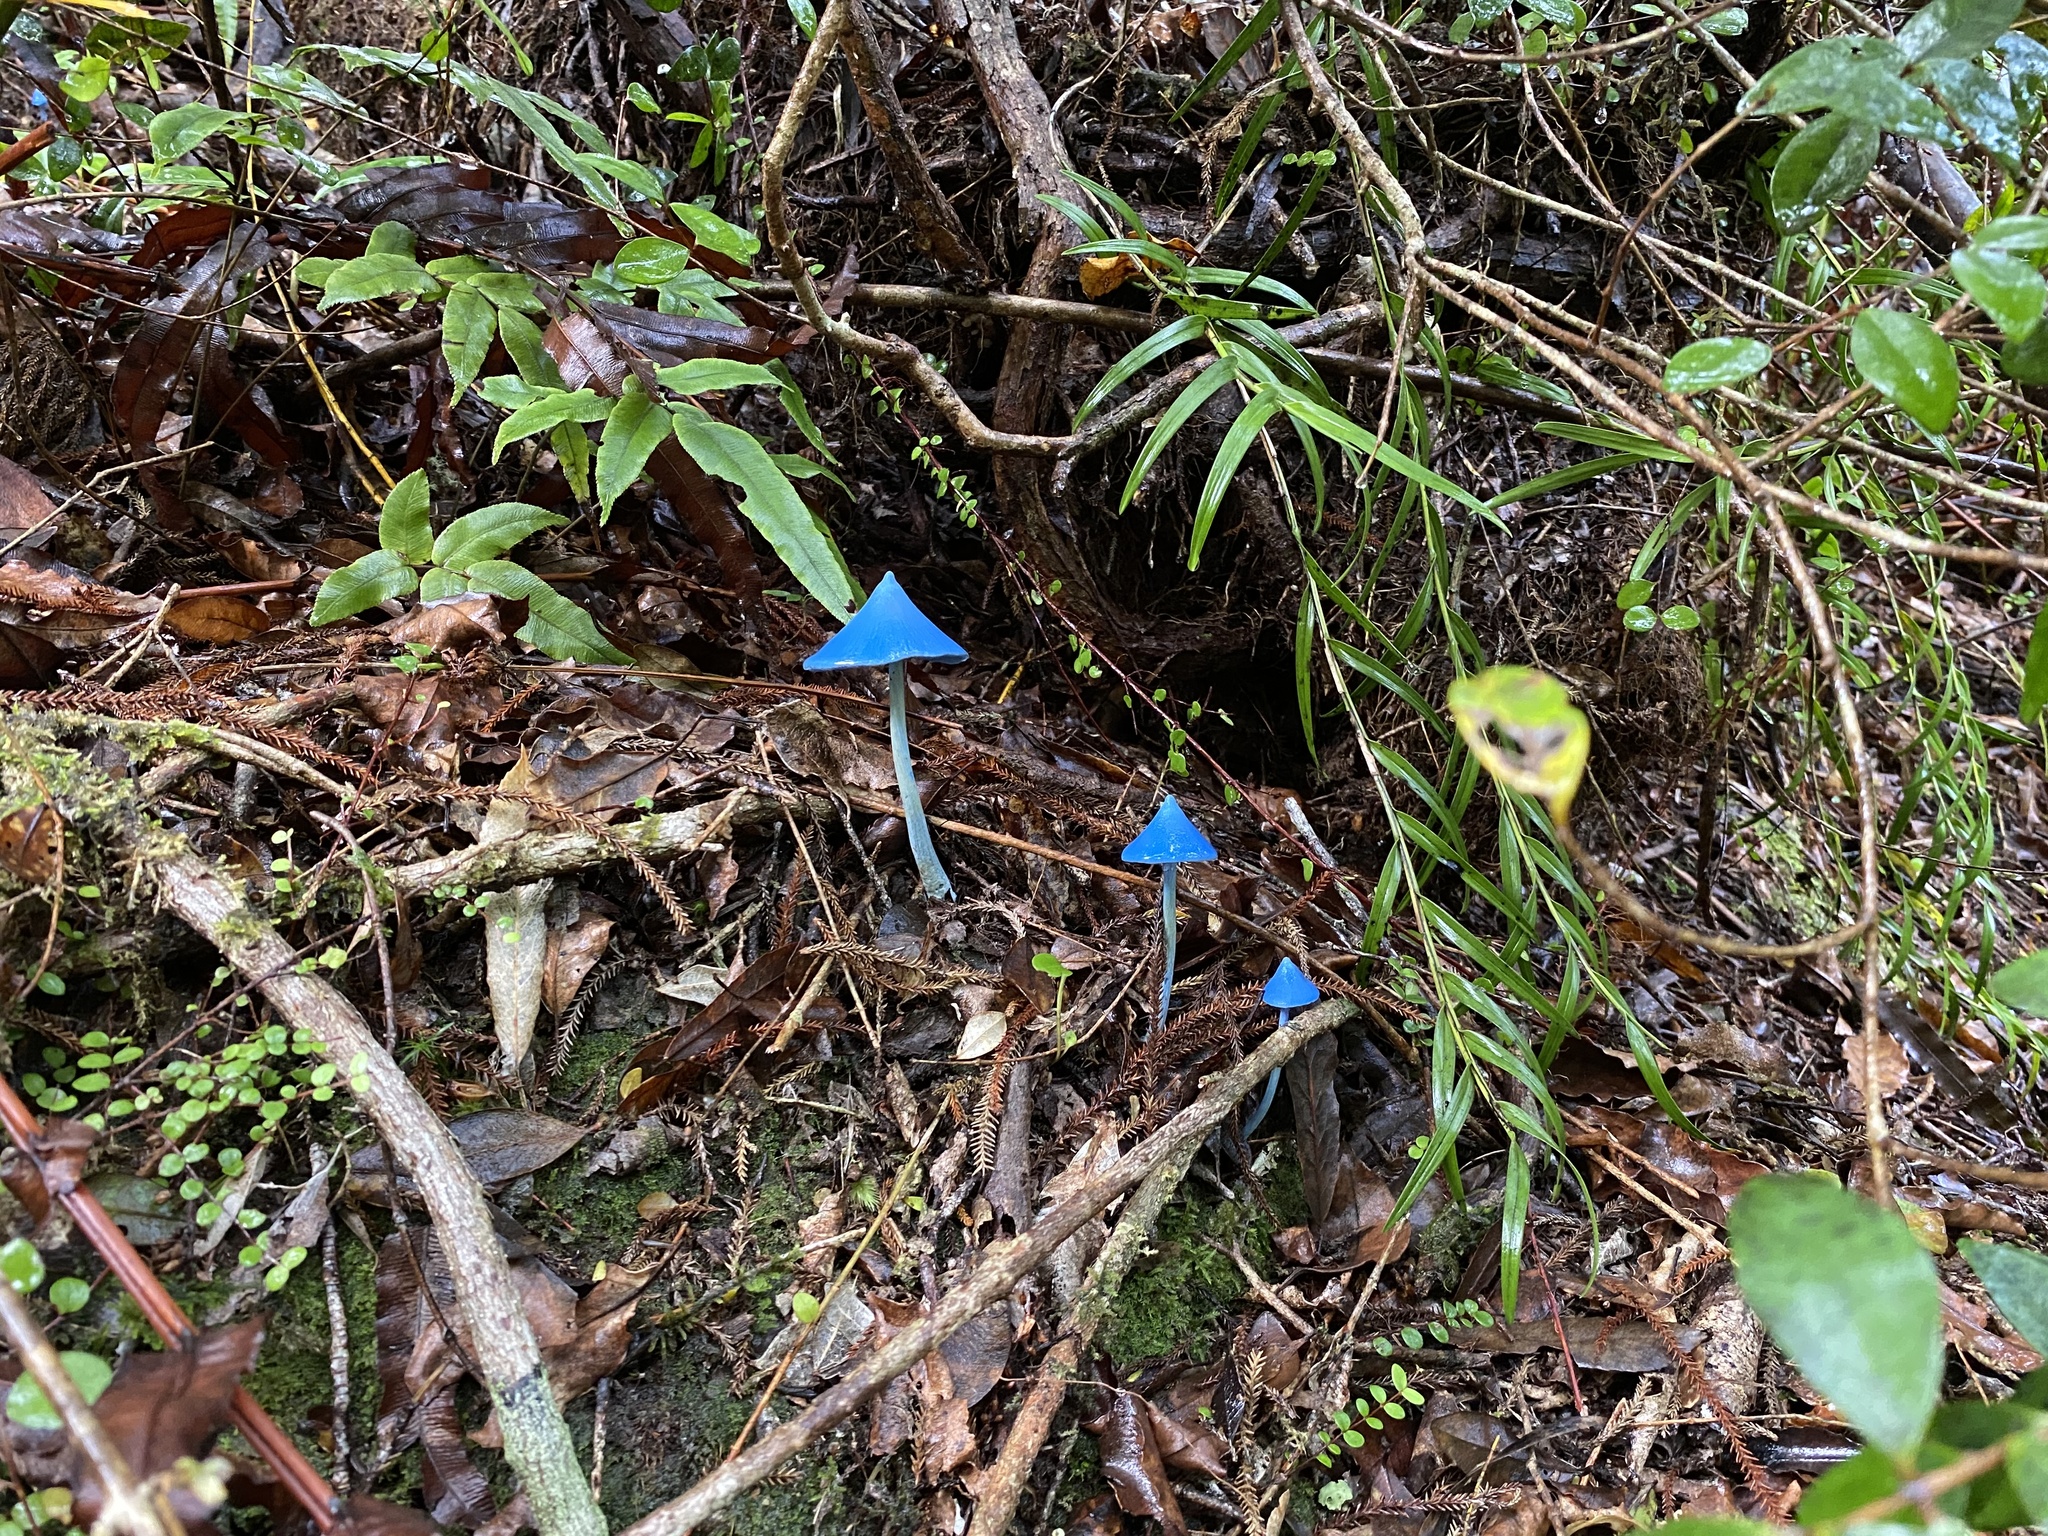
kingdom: Fungi
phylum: Basidiomycota
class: Agaricomycetes
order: Agaricales
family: Entolomataceae
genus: Entoloma
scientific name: Entoloma hochstetteri
